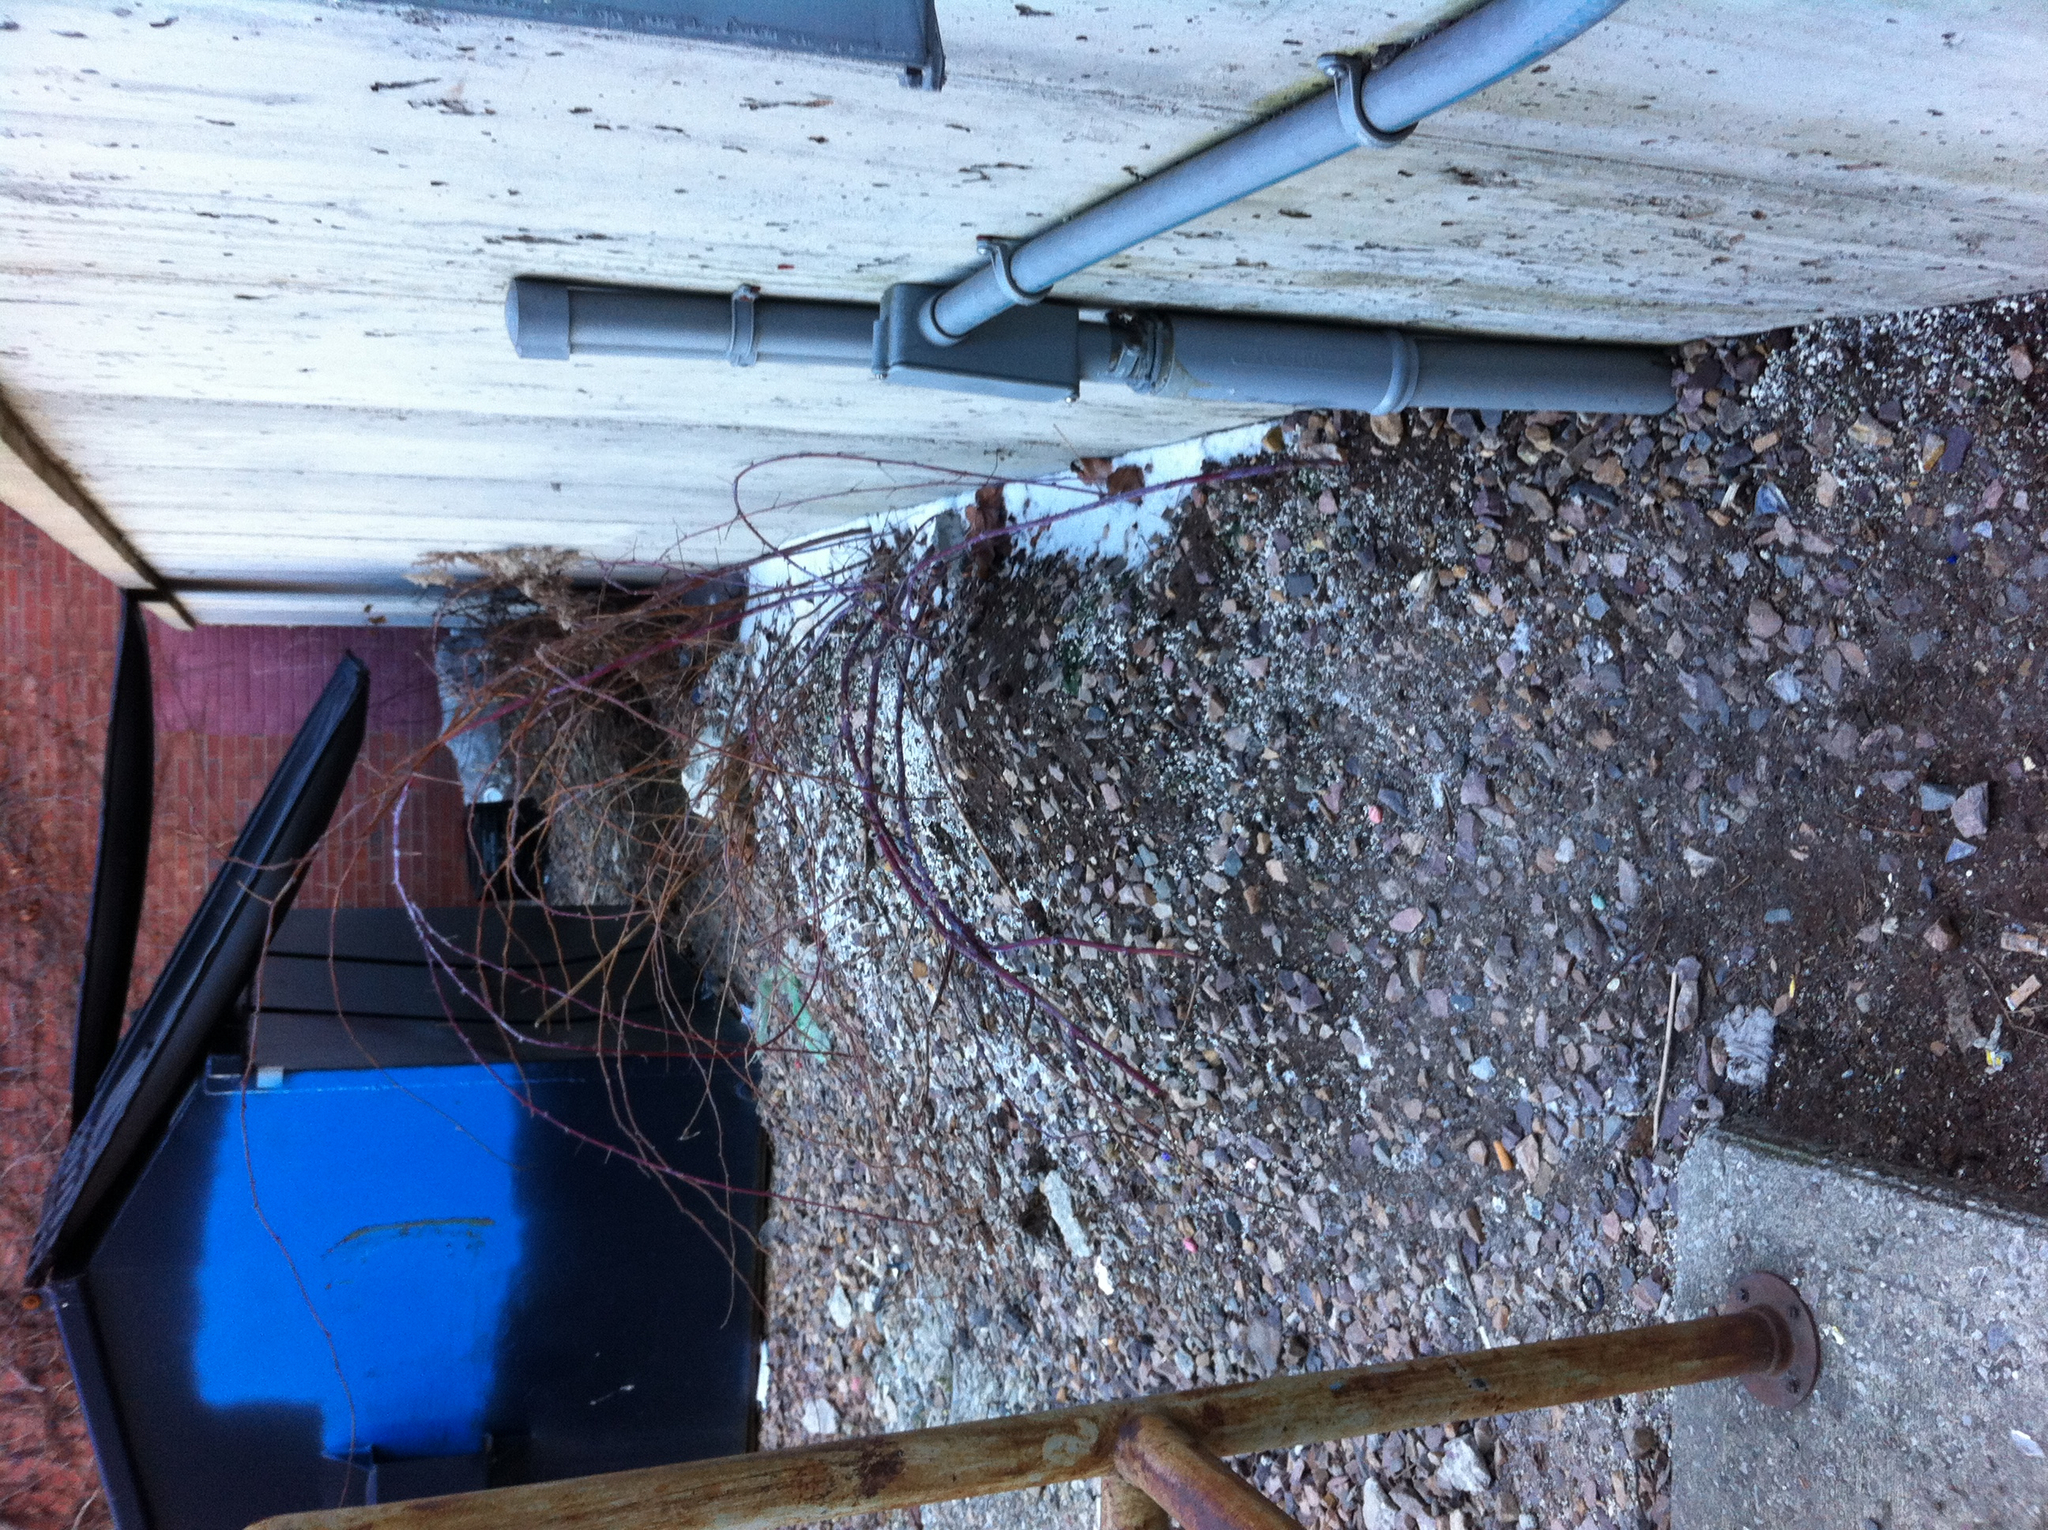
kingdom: Plantae
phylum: Tracheophyta
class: Magnoliopsida
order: Rosales
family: Rosaceae
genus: Rubus
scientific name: Rubus occidentalis
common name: Black raspberry
